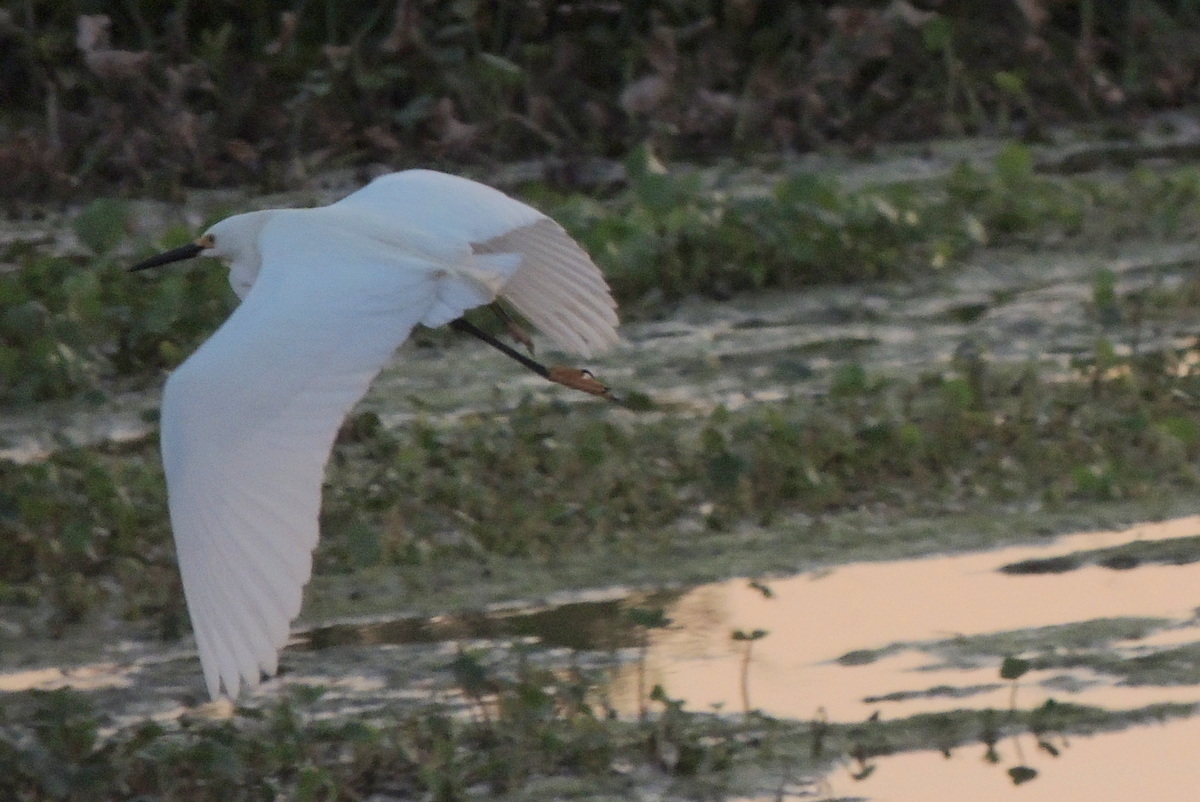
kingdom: Animalia
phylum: Chordata
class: Aves
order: Pelecaniformes
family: Ardeidae
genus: Egretta
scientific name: Egretta thula
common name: Snowy egret
